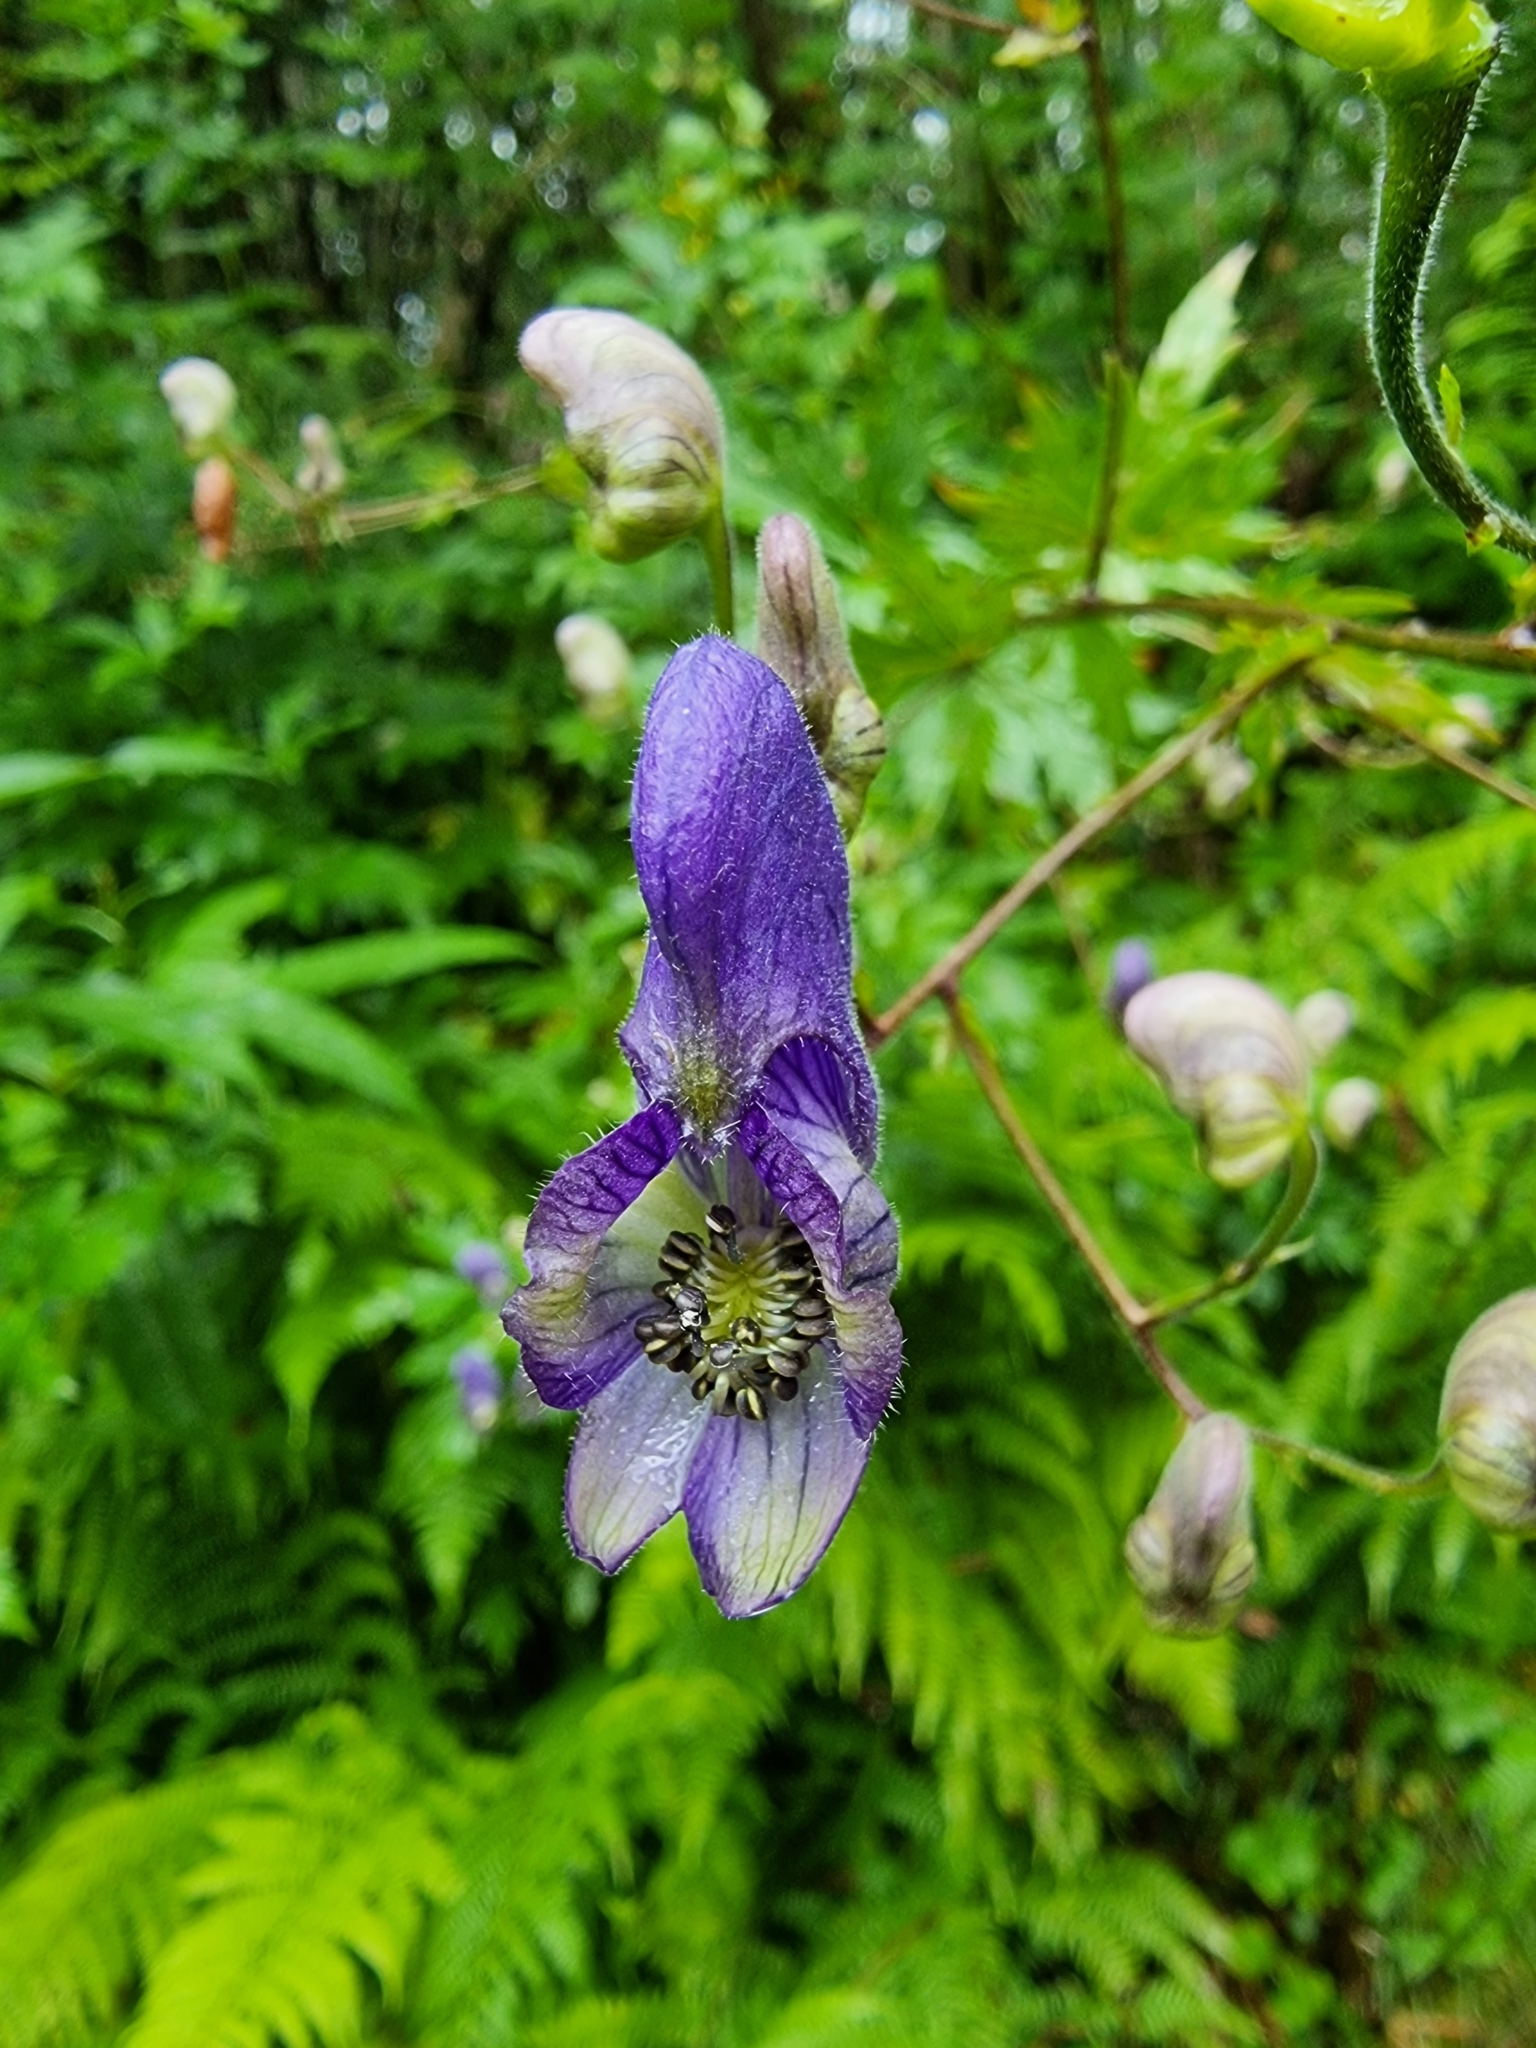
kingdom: Plantae
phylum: Tracheophyta
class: Magnoliopsida
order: Ranunculales
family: Ranunculaceae
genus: Aconitum
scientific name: Aconitum degenii
